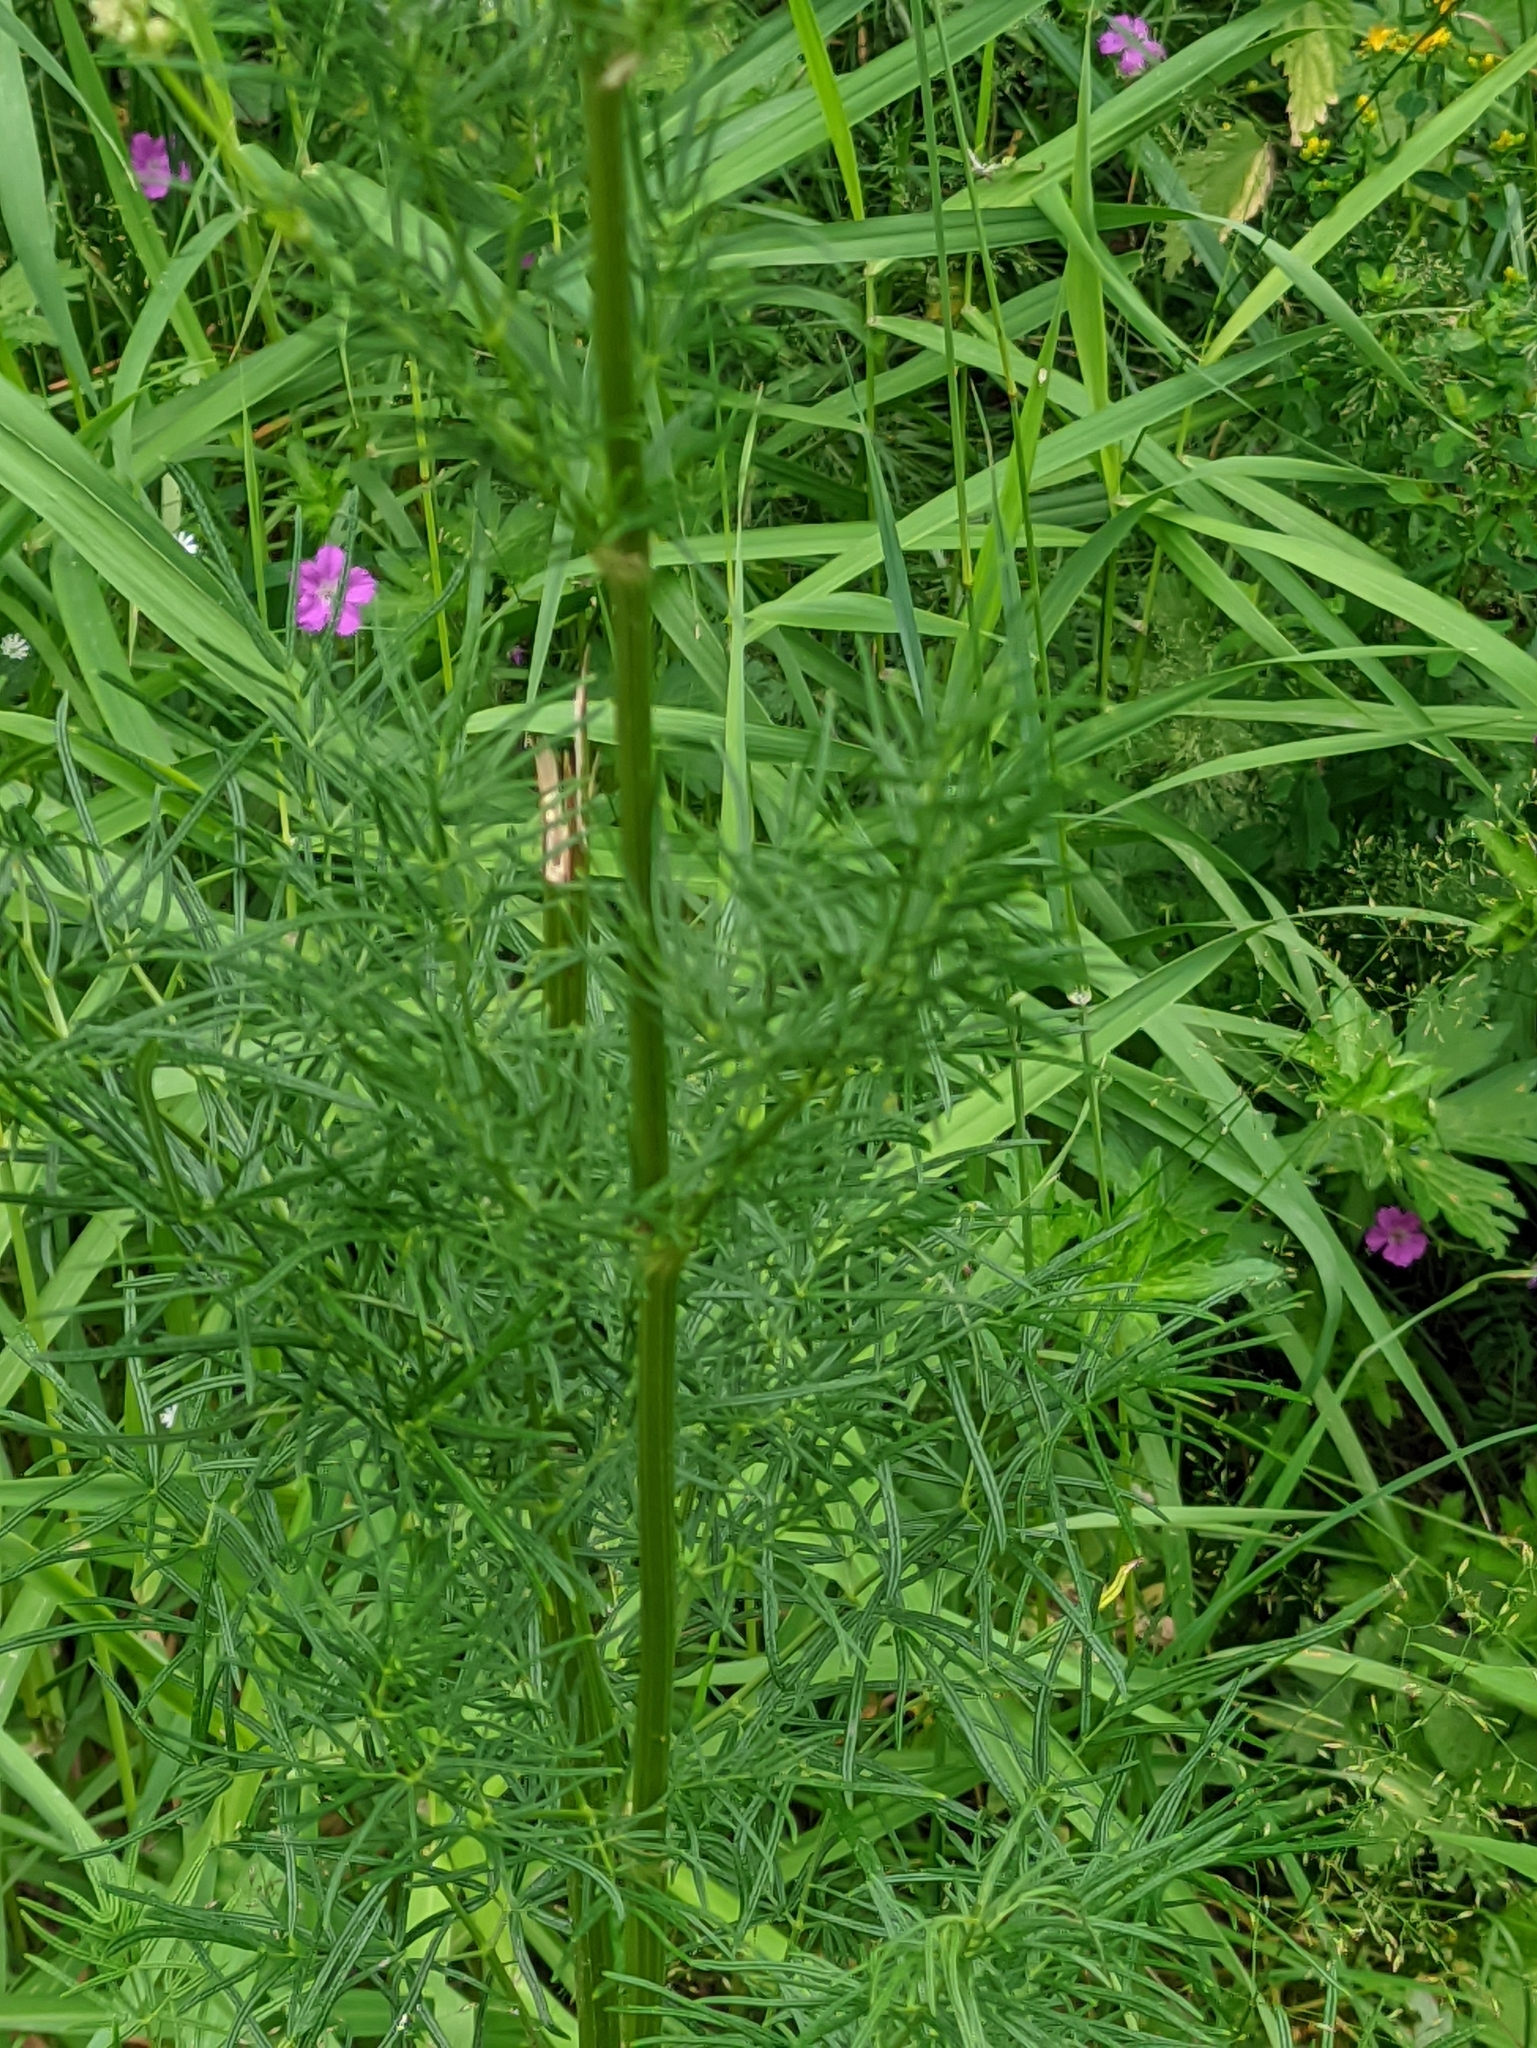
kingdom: Plantae
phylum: Tracheophyta
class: Magnoliopsida
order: Ranunculales
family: Ranunculaceae
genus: Thalictrum
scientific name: Thalictrum lucidum
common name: Shining meadow-rue
